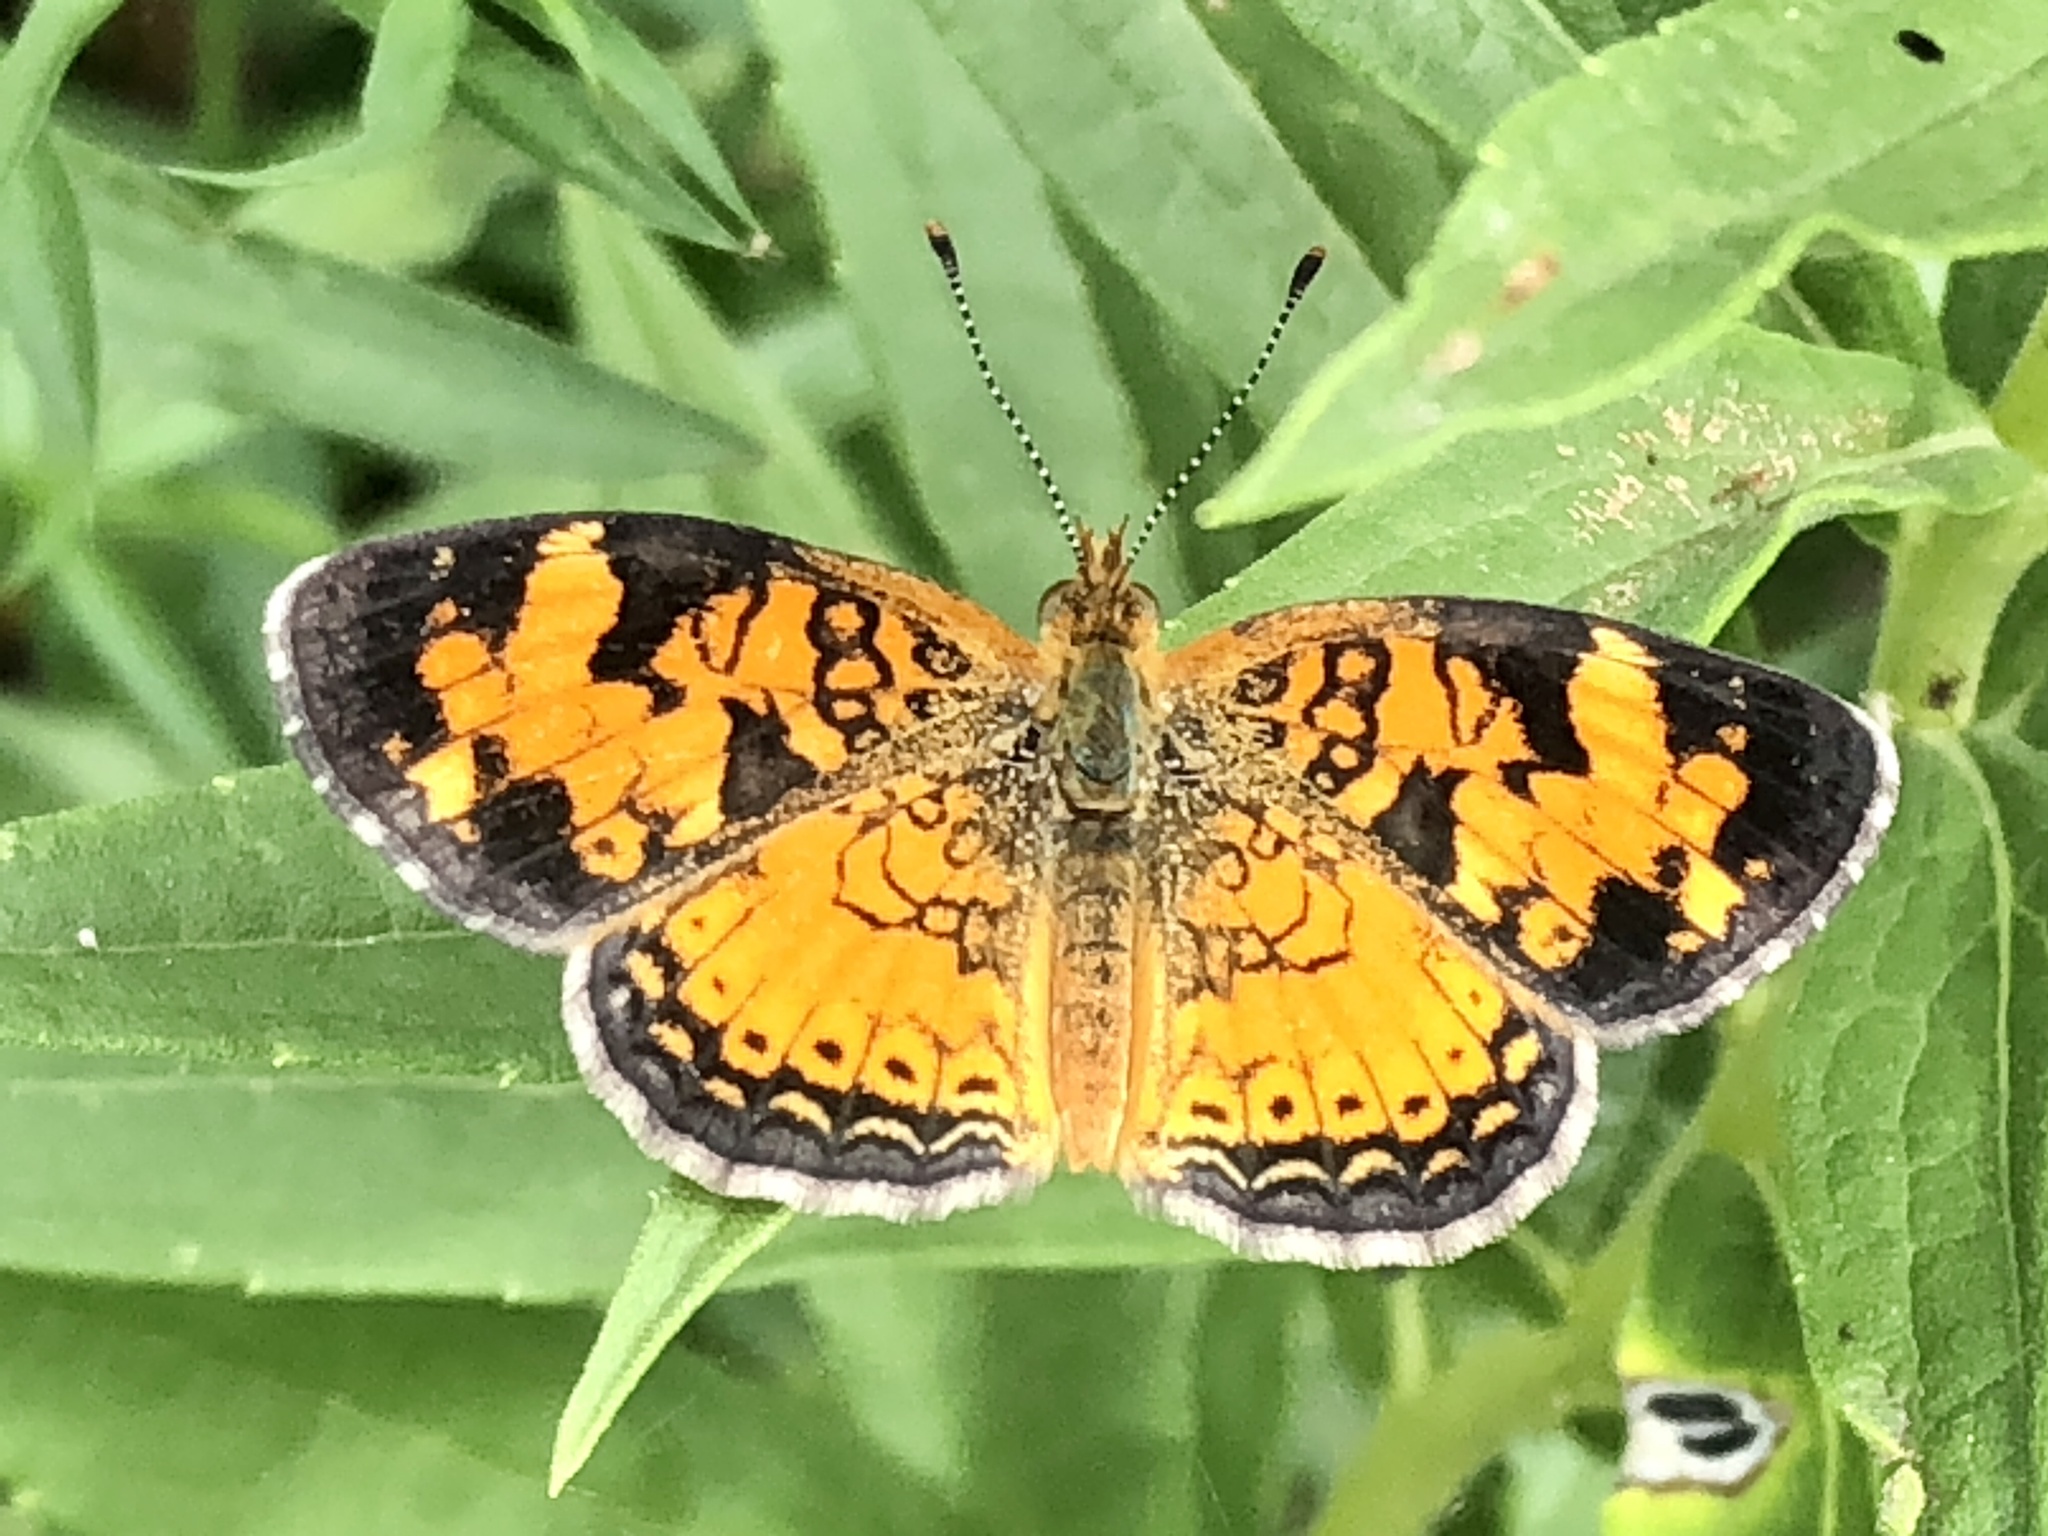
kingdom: Animalia
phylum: Arthropoda
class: Insecta
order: Lepidoptera
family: Nymphalidae
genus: Phyciodes
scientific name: Phyciodes tharos
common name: Pearl crescent
